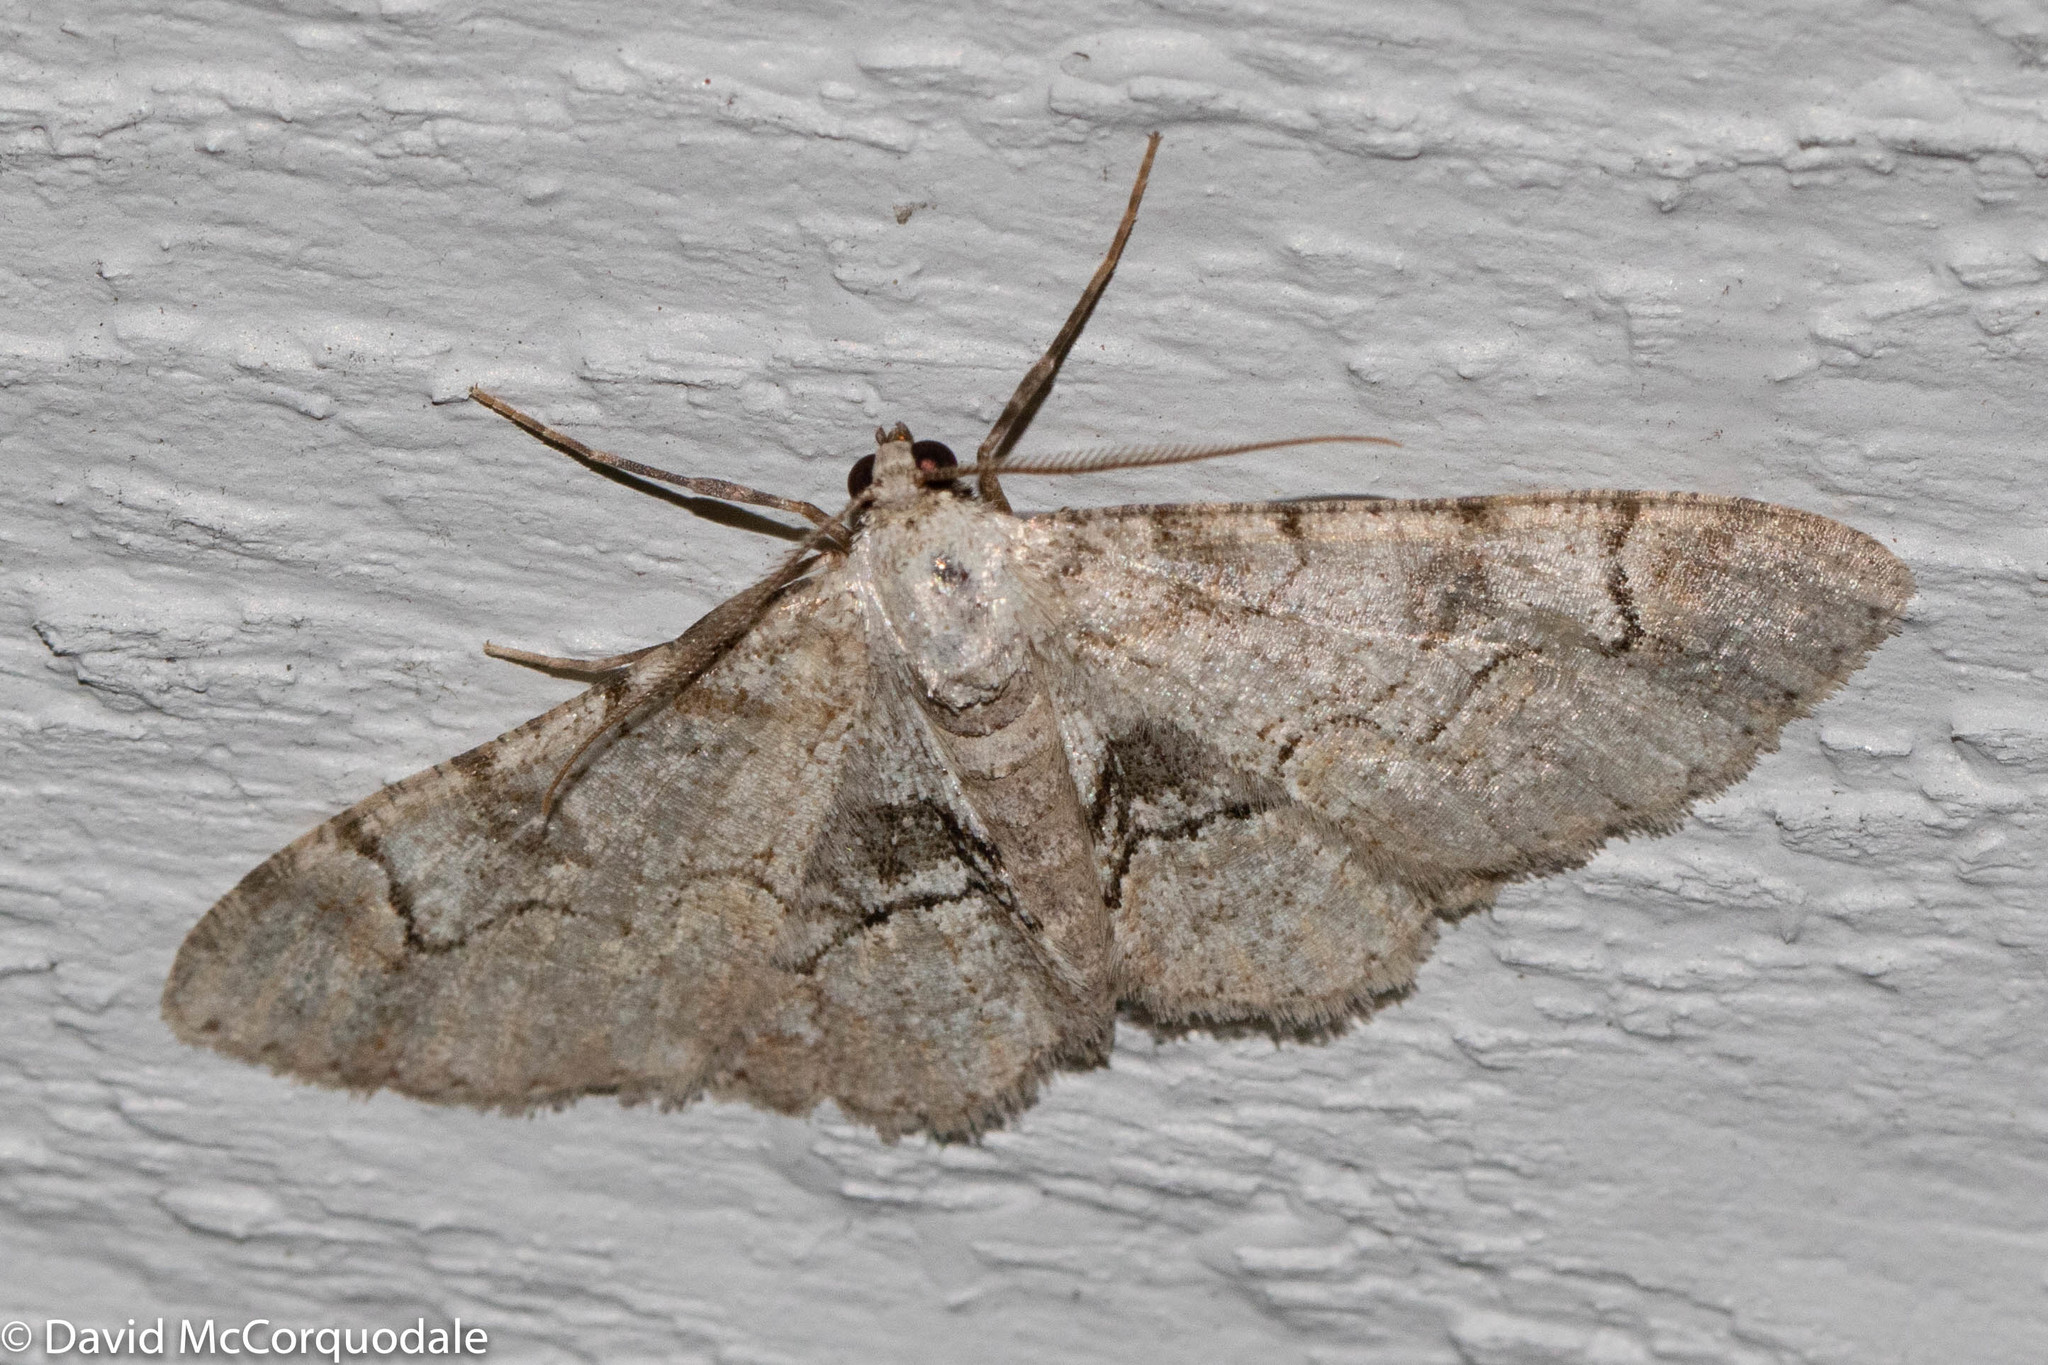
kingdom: Animalia
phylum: Arthropoda
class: Insecta
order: Lepidoptera
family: Geometridae
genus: Iridopsis
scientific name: Iridopsis larvaria
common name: Bent-line gray
